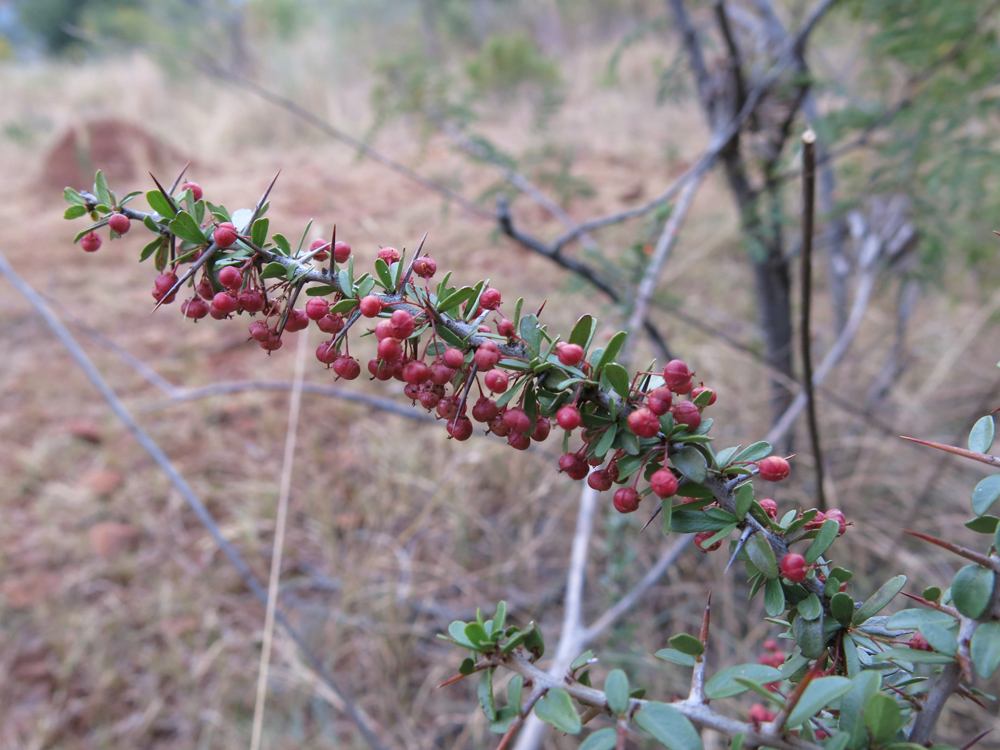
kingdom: Plantae
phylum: Tracheophyta
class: Magnoliopsida
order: Celastrales
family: Celastraceae
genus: Gymnosporia
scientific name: Gymnosporia polyacantha
